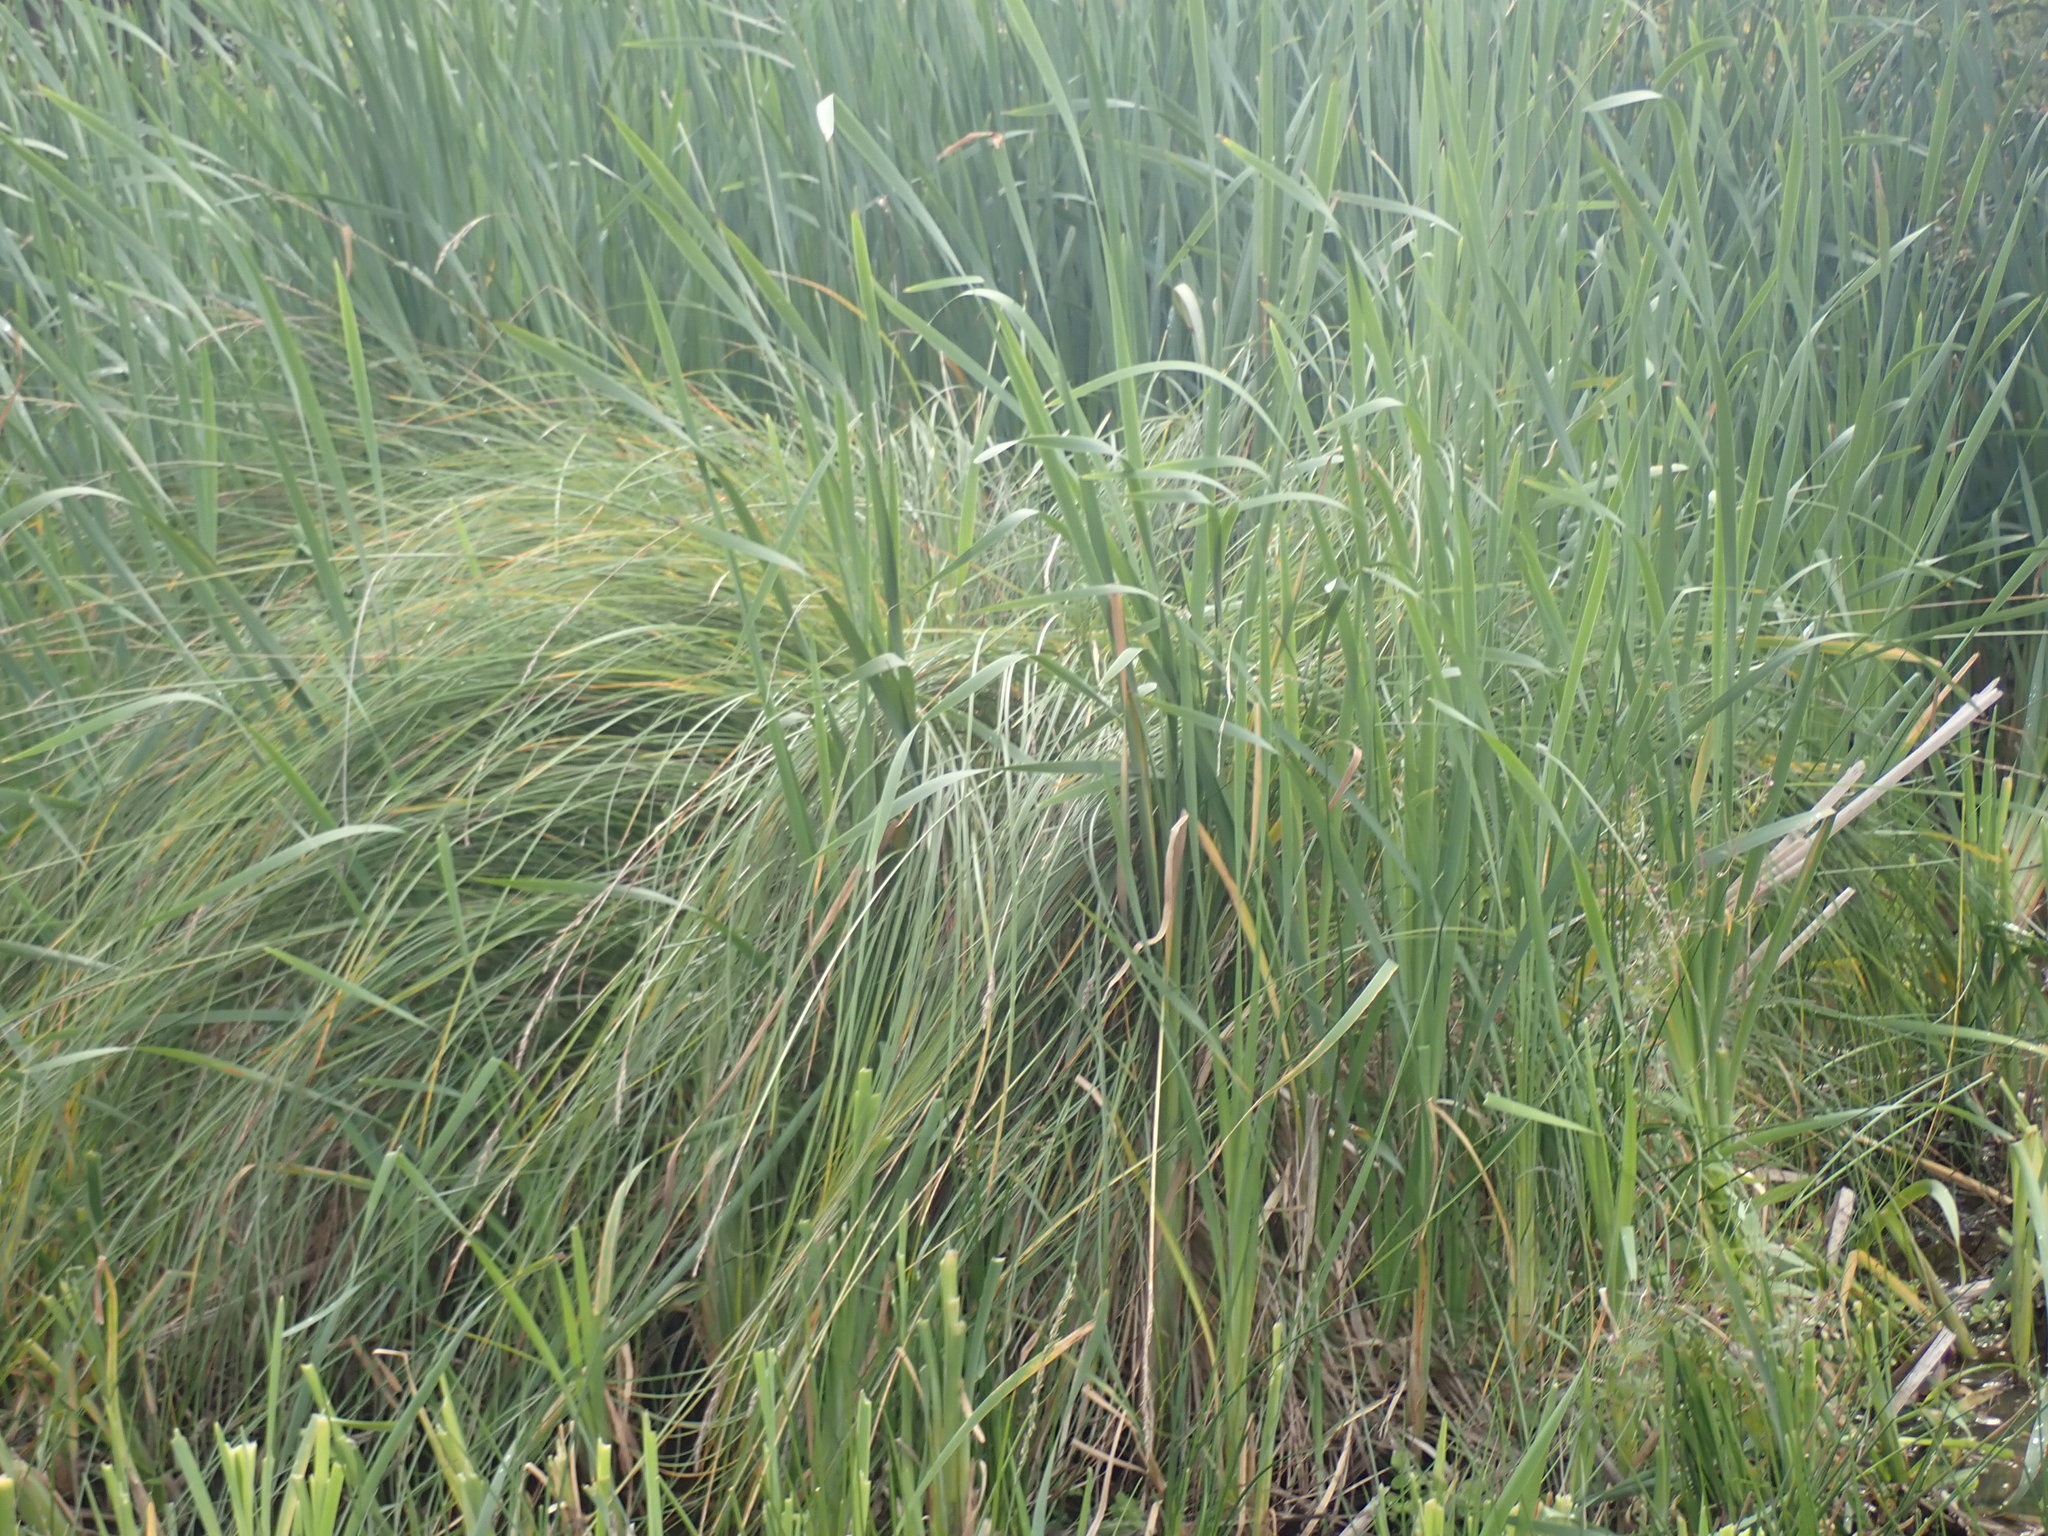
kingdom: Plantae
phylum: Tracheophyta
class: Liliopsida
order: Poales
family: Cyperaceae
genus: Carex
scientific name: Carex paniculata
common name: Greater tussock-sedge
